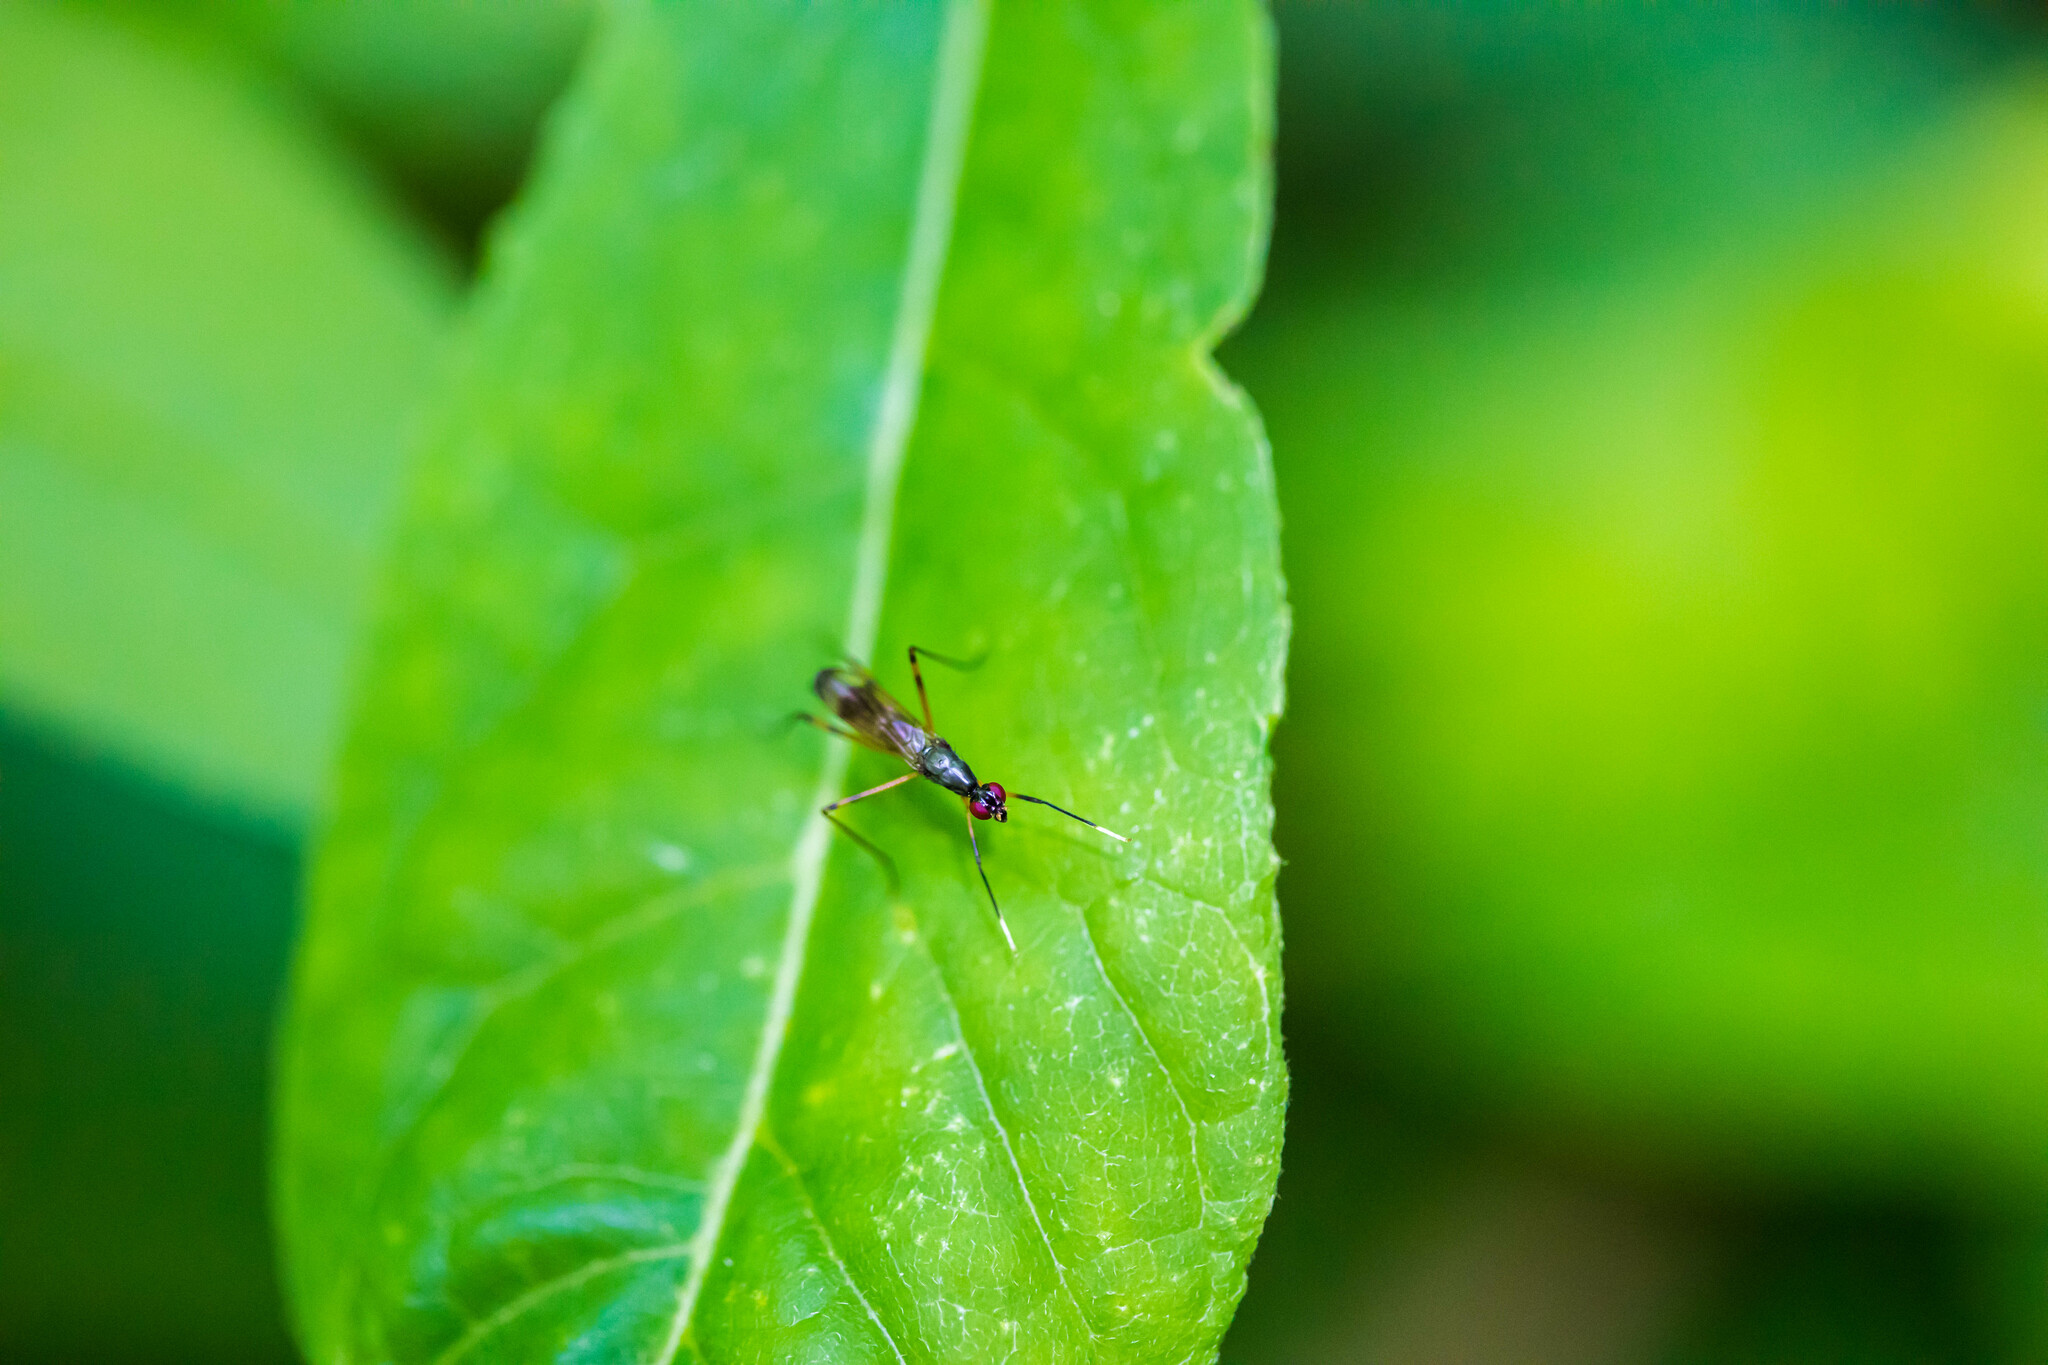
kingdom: Animalia
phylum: Arthropoda
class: Insecta
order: Diptera
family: Micropezidae
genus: Rainieria
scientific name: Rainieria antennaepes
